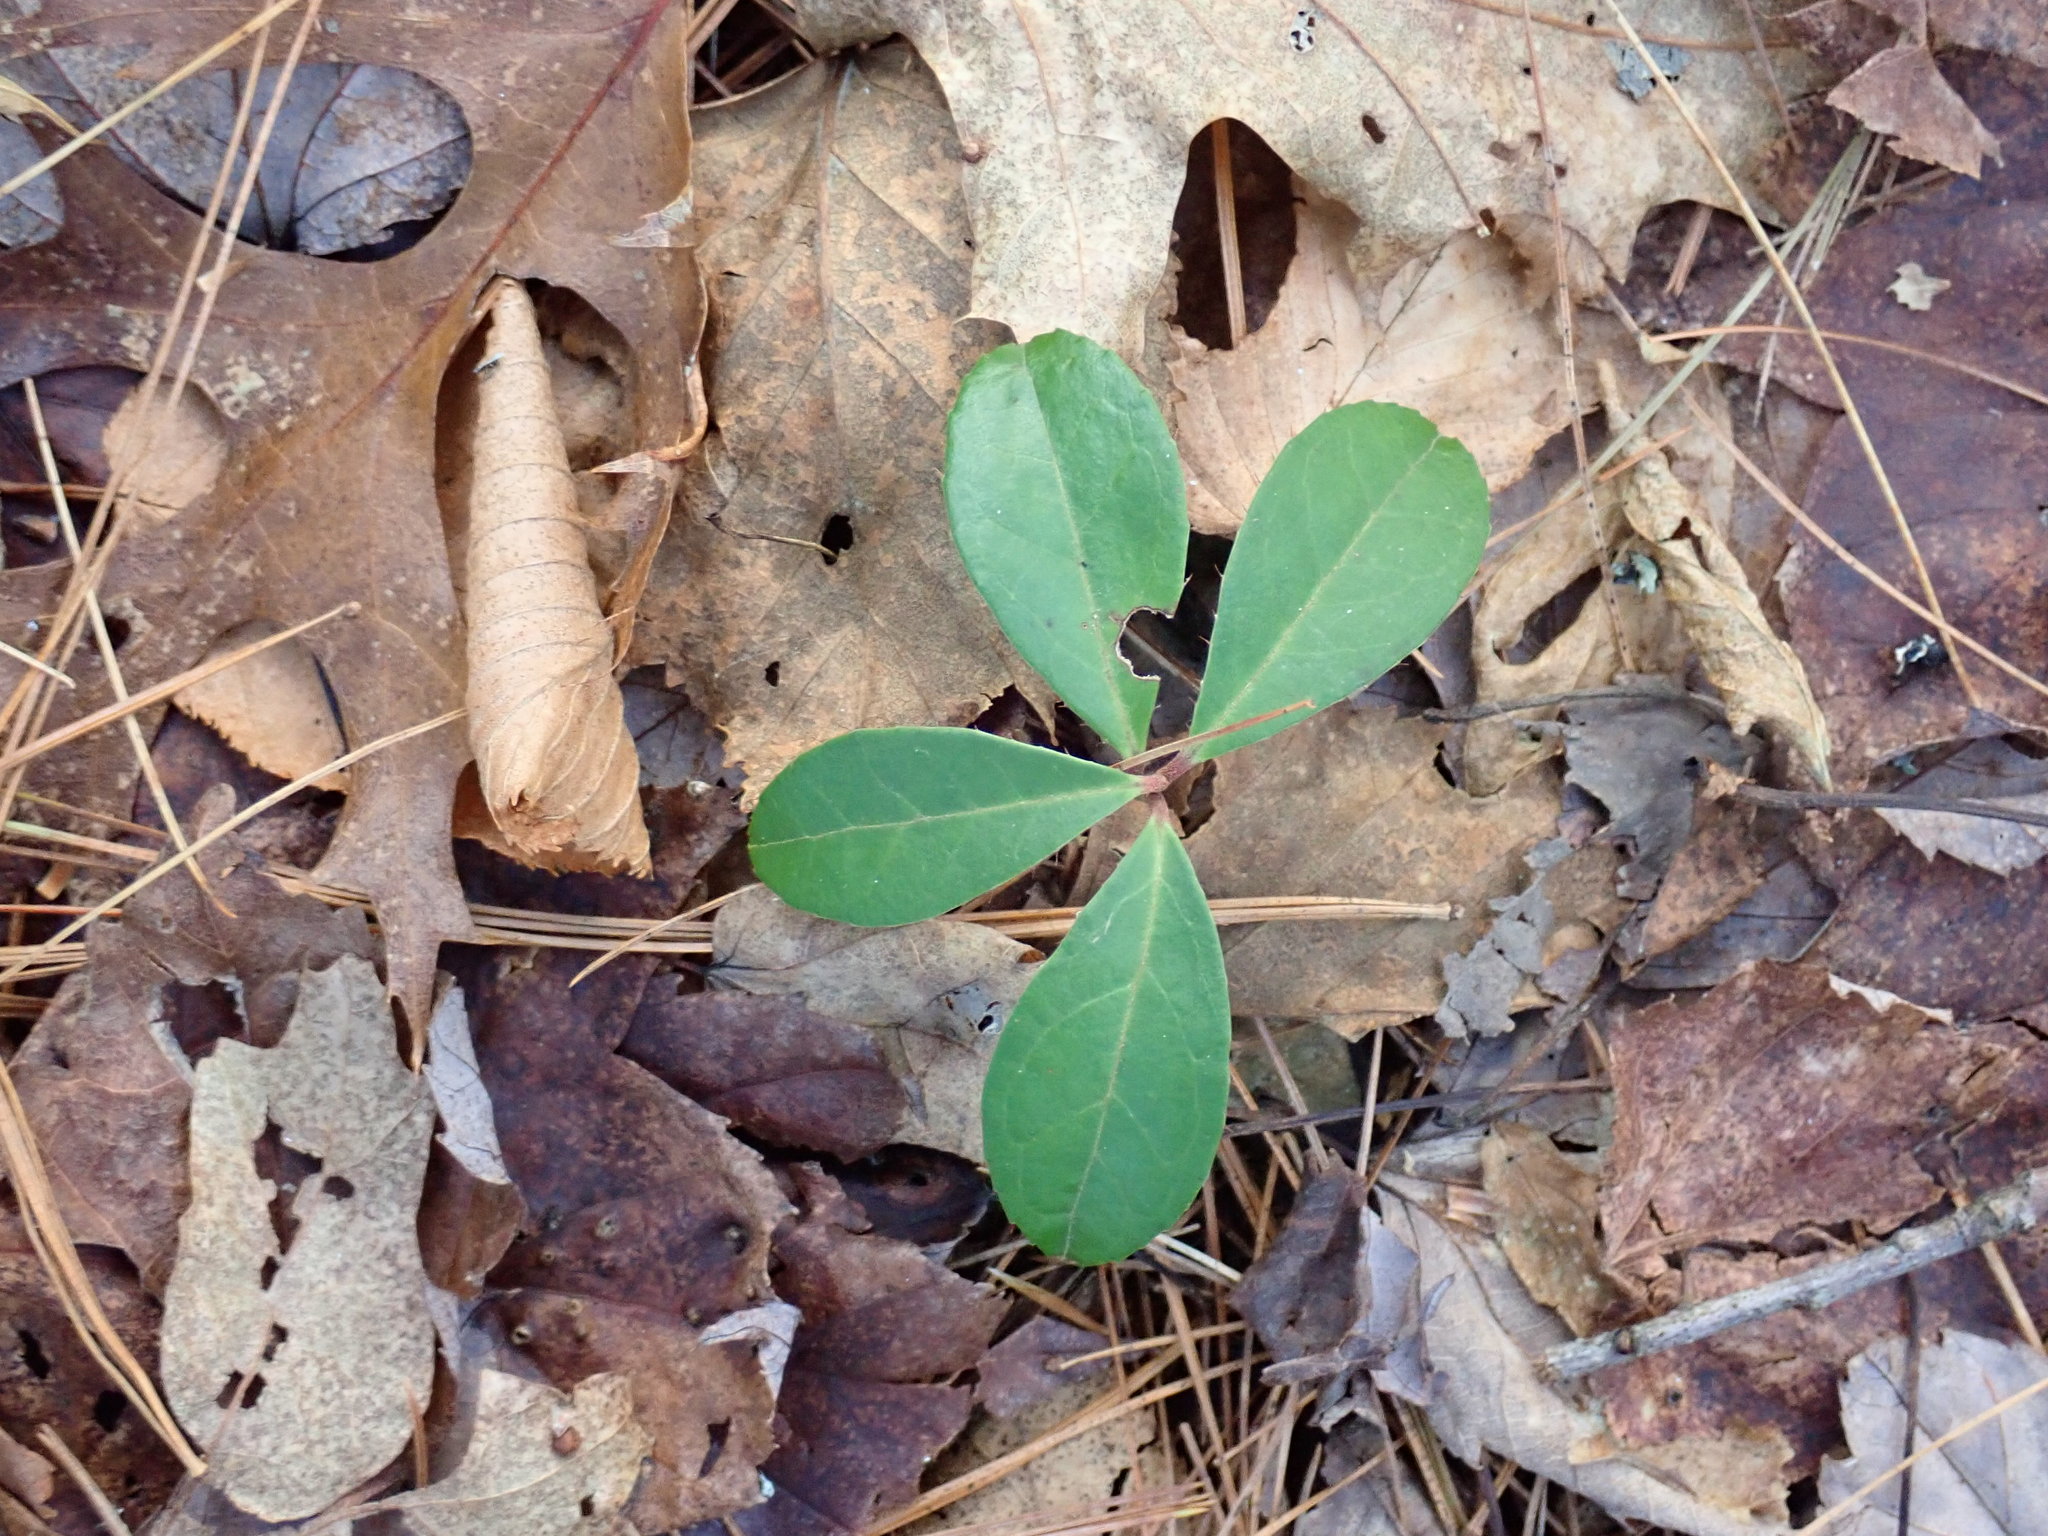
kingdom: Plantae
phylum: Tracheophyta
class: Magnoliopsida
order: Ericales
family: Ericaceae
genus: Gaultheria
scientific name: Gaultheria procumbens
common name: Checkerberry
